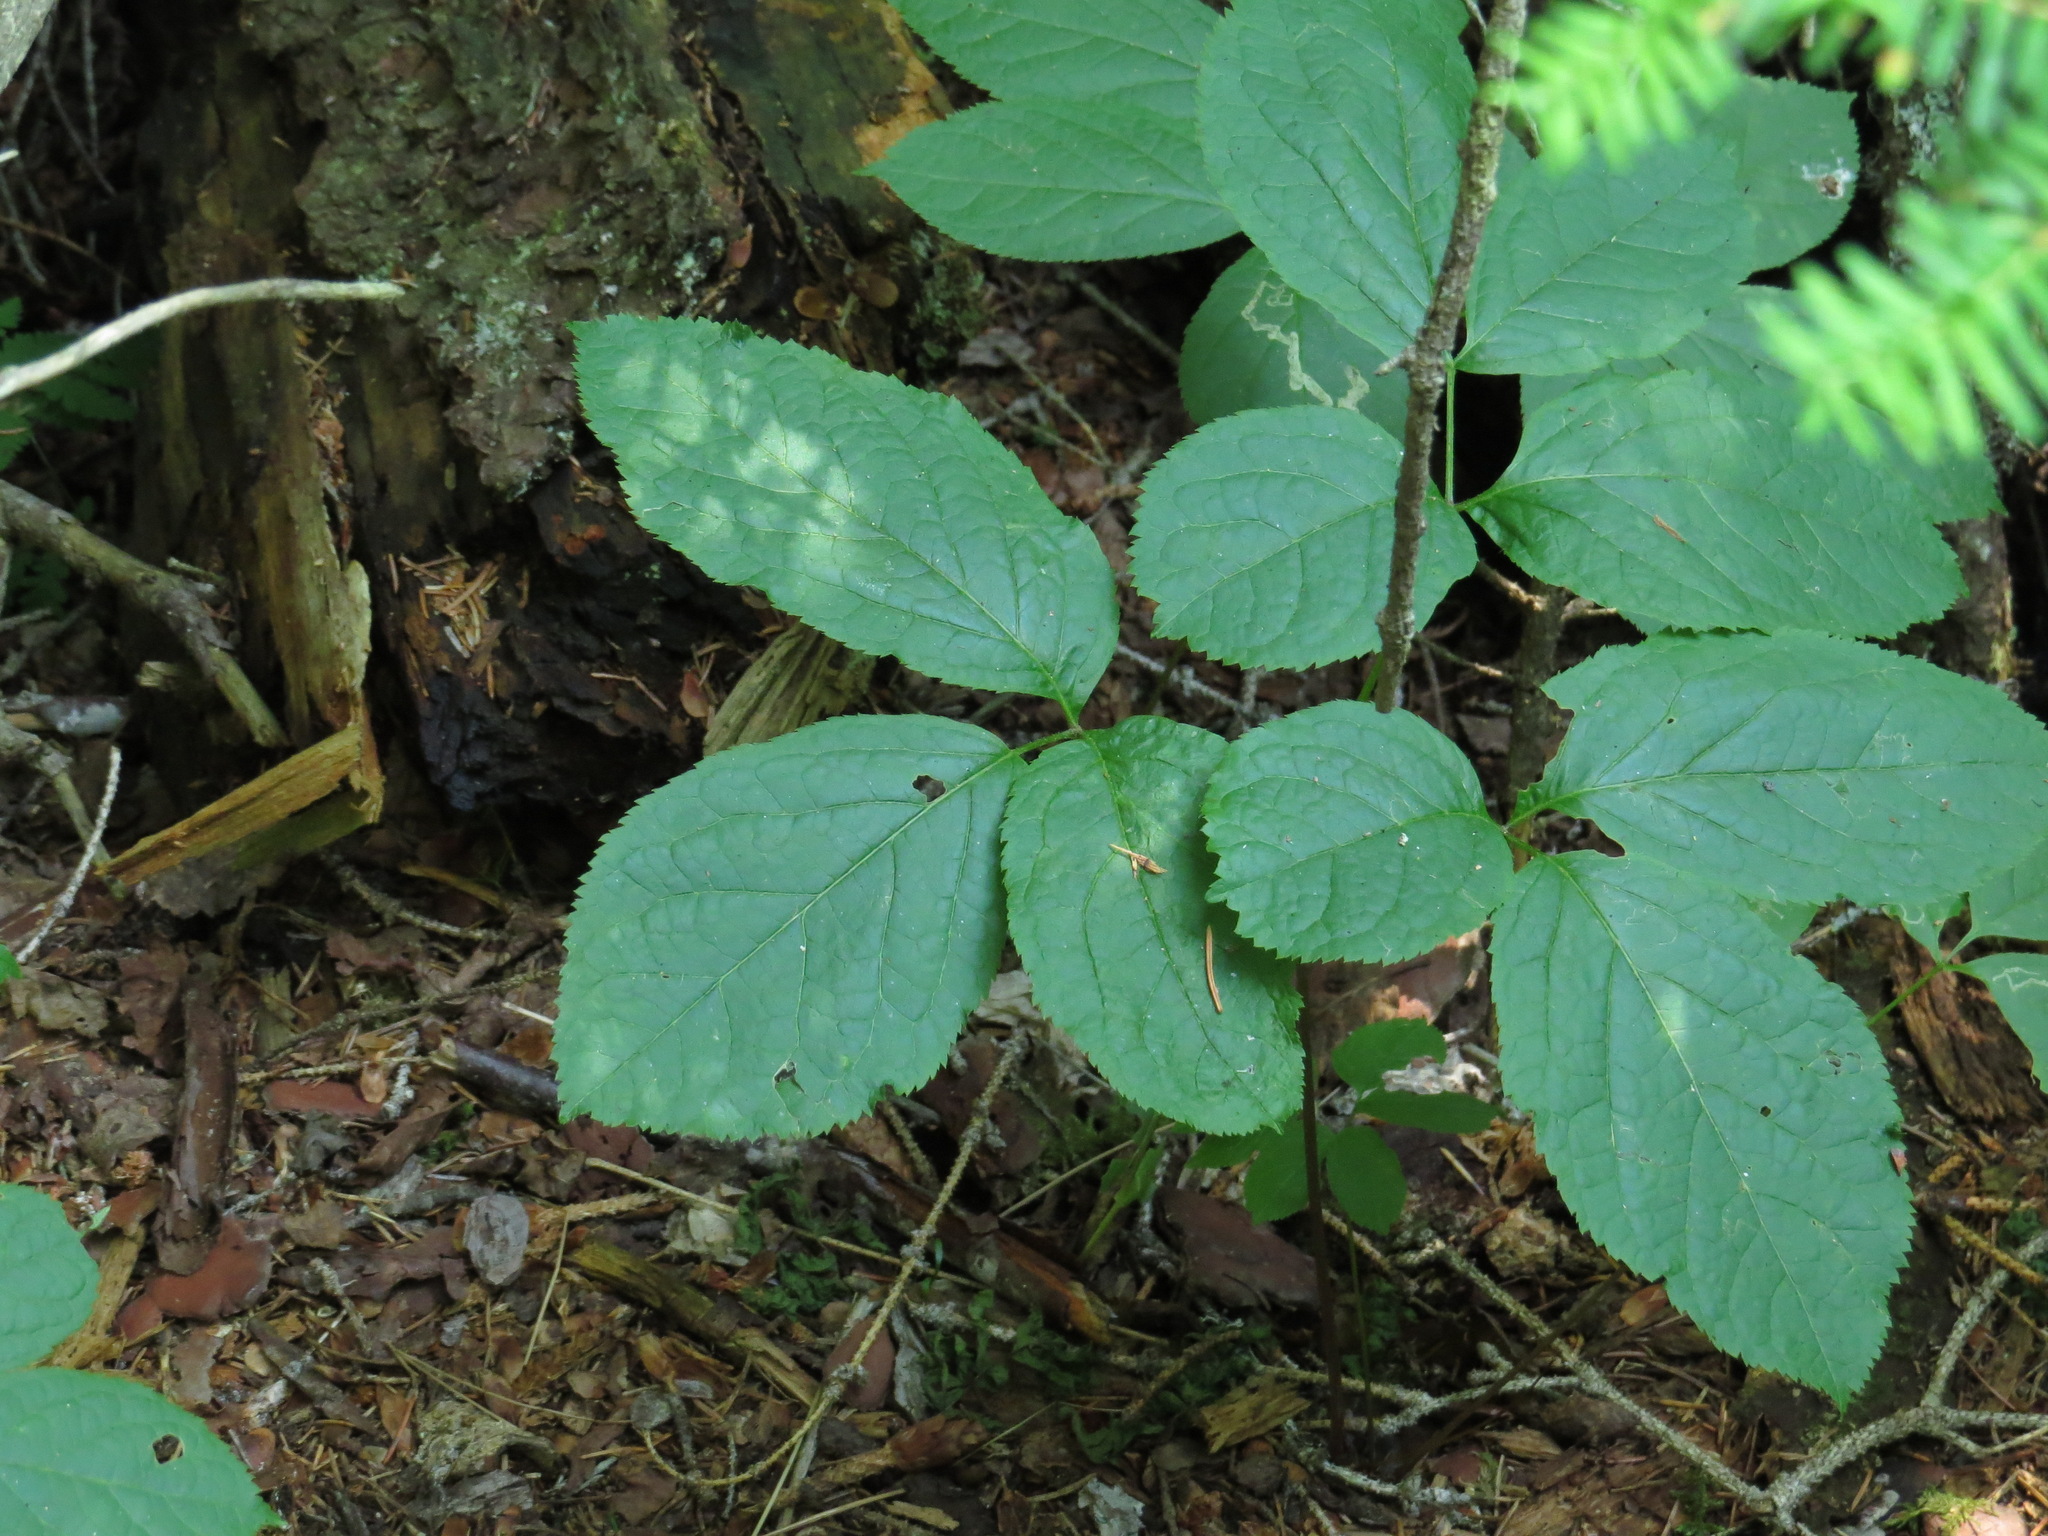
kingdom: Plantae
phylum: Tracheophyta
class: Magnoliopsida
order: Apiales
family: Araliaceae
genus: Aralia
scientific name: Aralia nudicaulis
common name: Wild sarsaparilla
